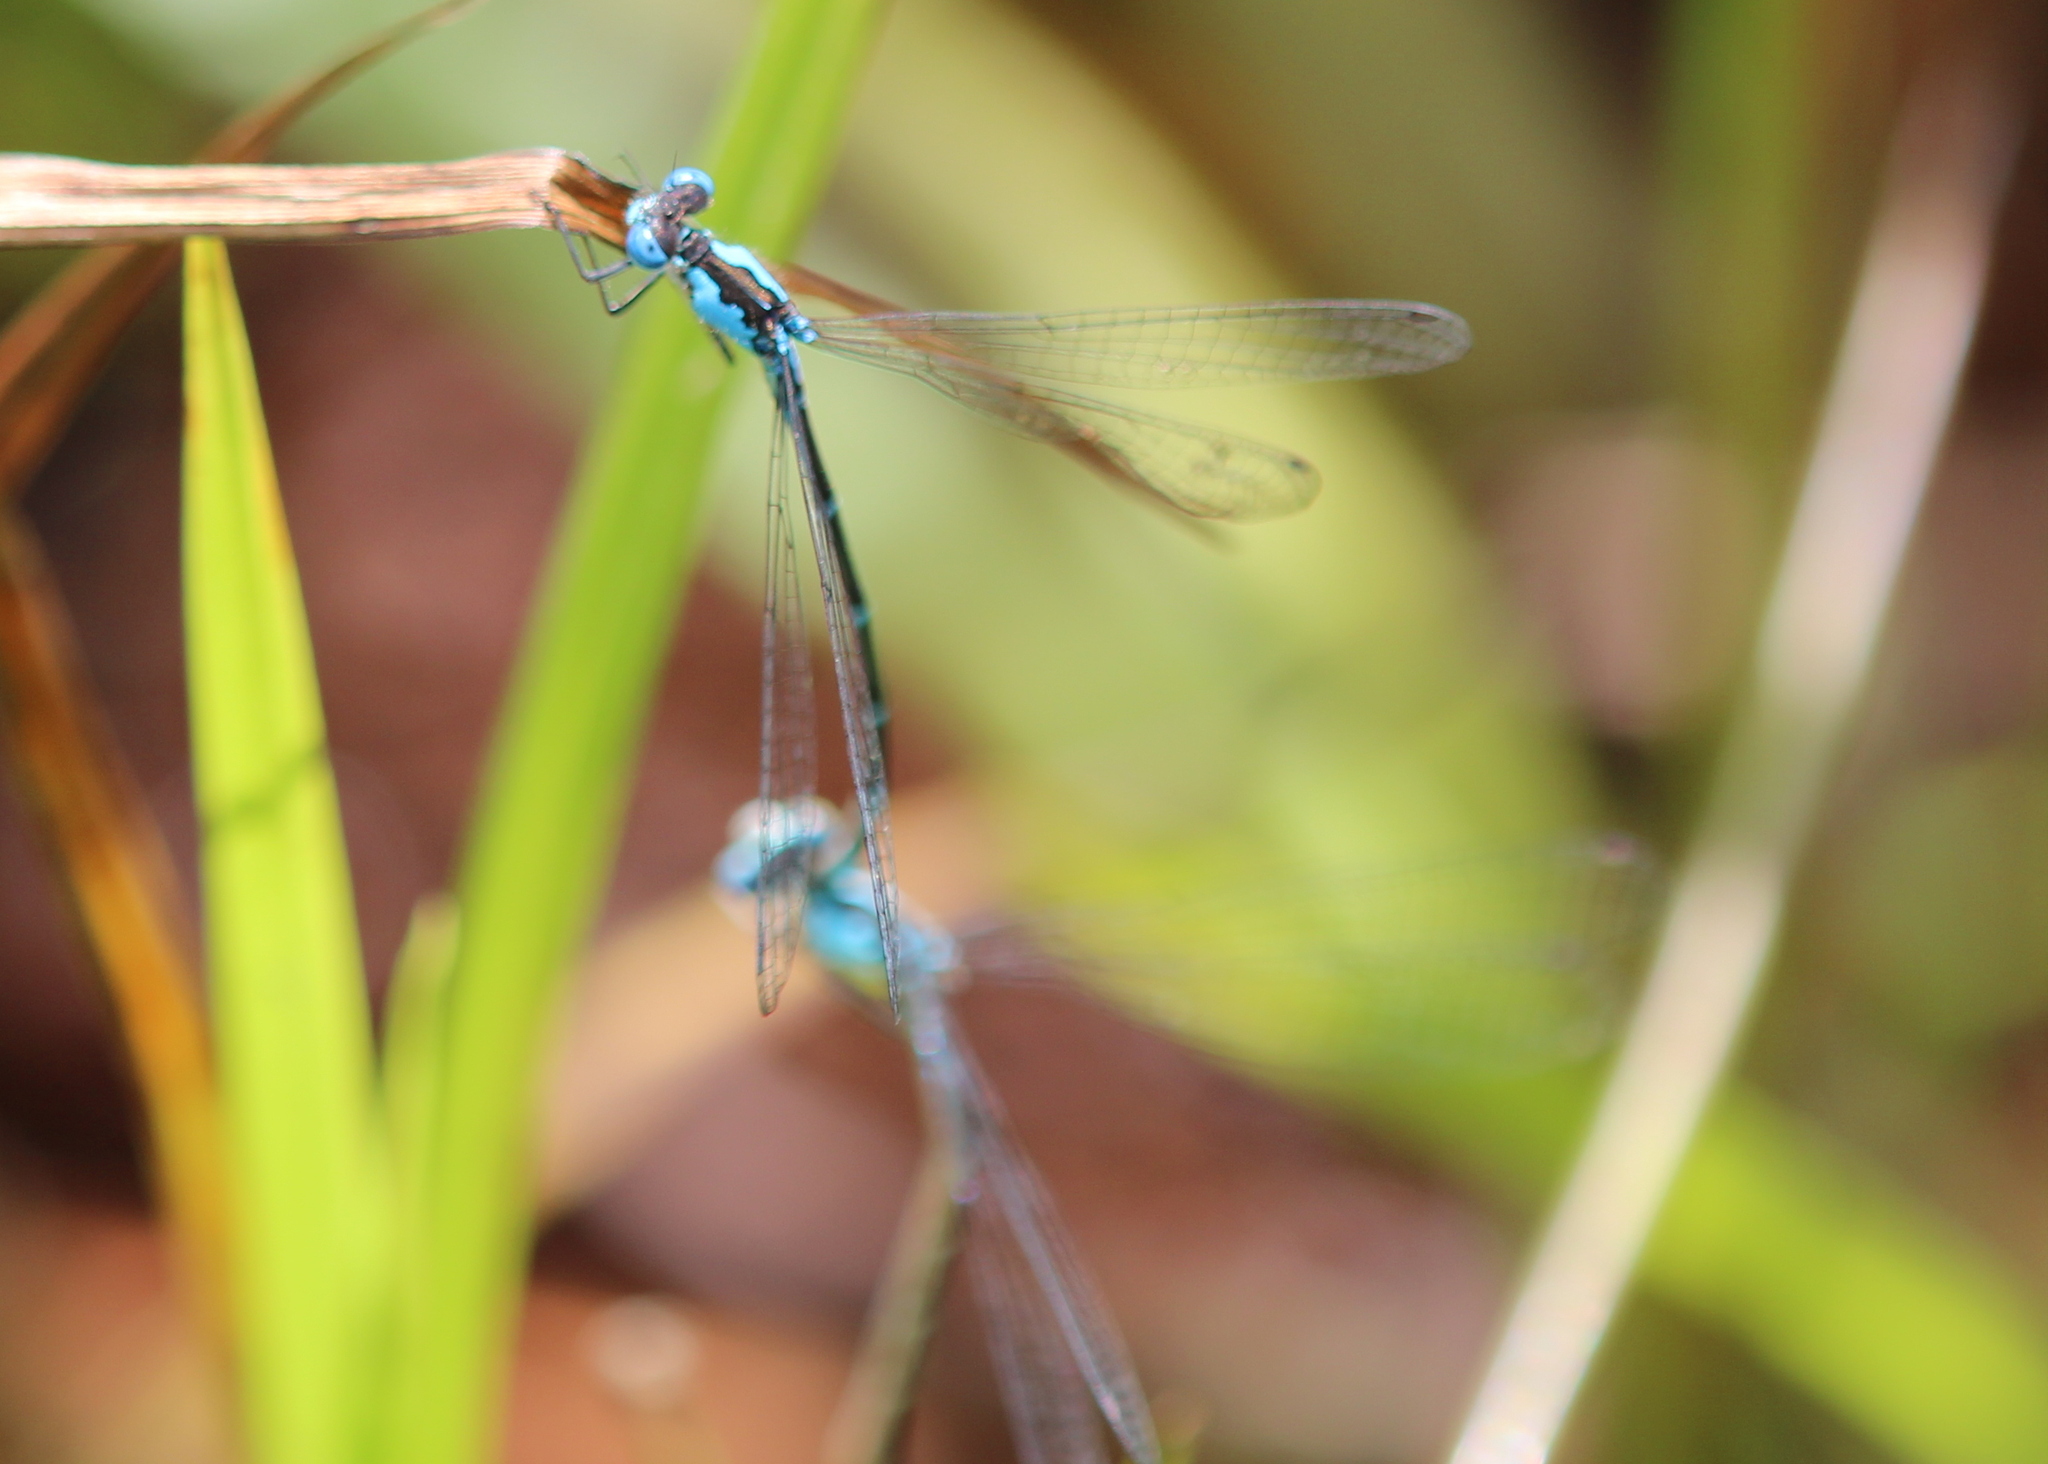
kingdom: Animalia
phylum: Arthropoda
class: Insecta
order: Odonata
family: Coenagrionidae
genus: Chromagrion
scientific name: Chromagrion conditum
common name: Aurora damsel
